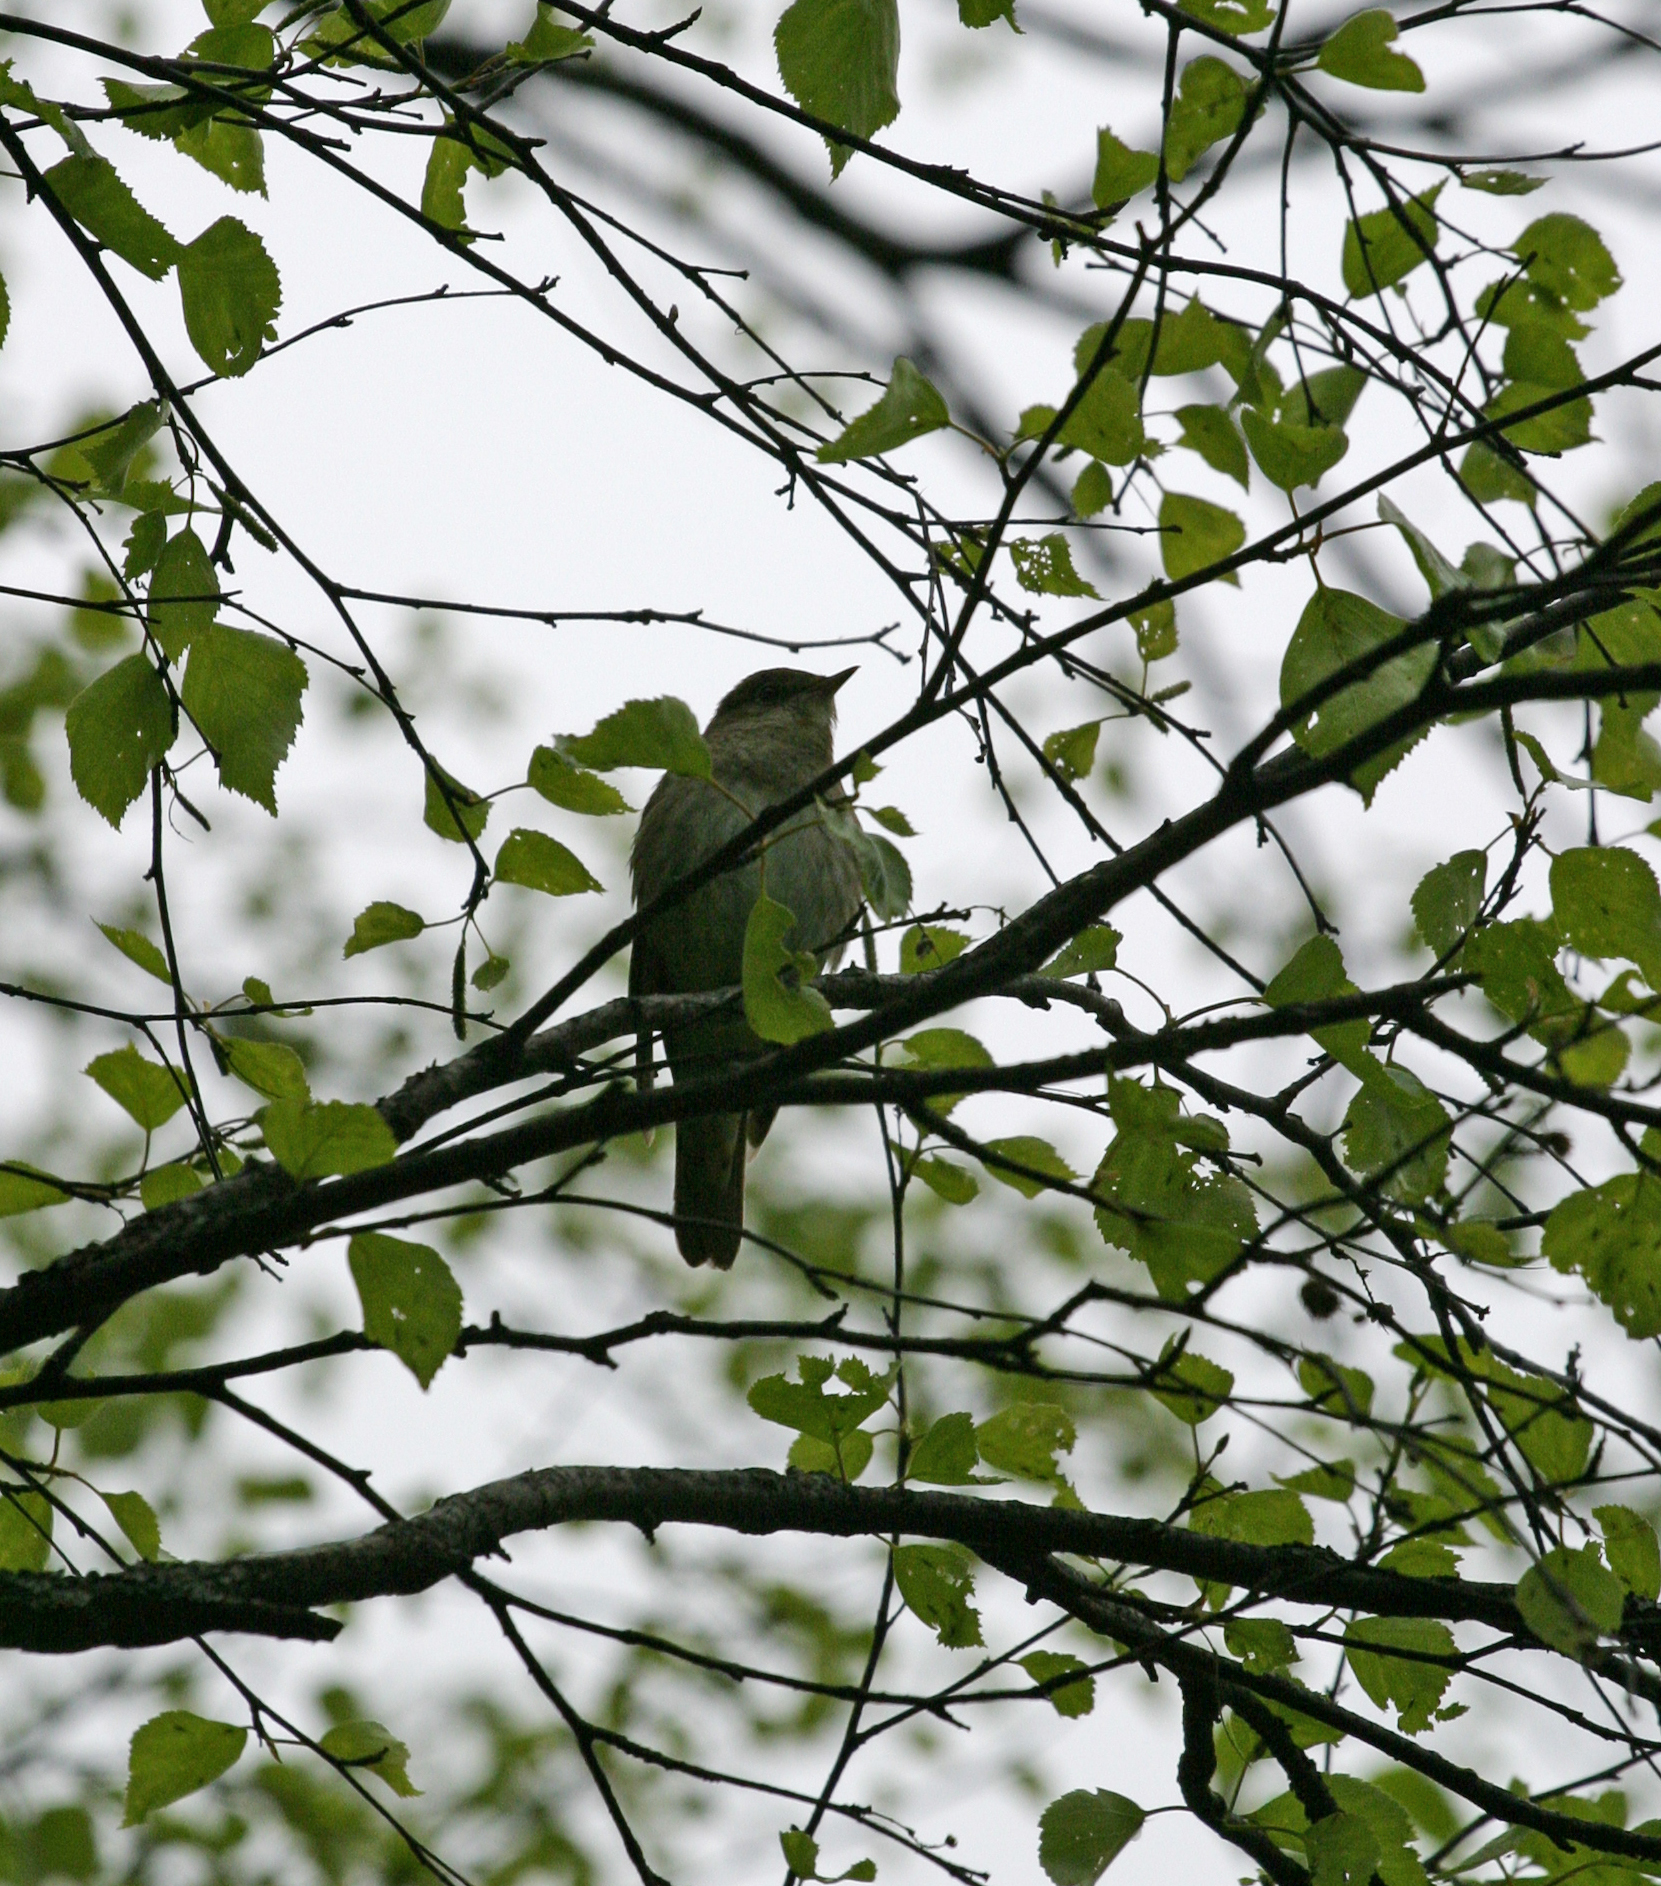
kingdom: Animalia
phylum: Chordata
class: Aves
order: Passeriformes
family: Muscicapidae
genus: Luscinia
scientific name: Luscinia luscinia
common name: Thrush nightingale
